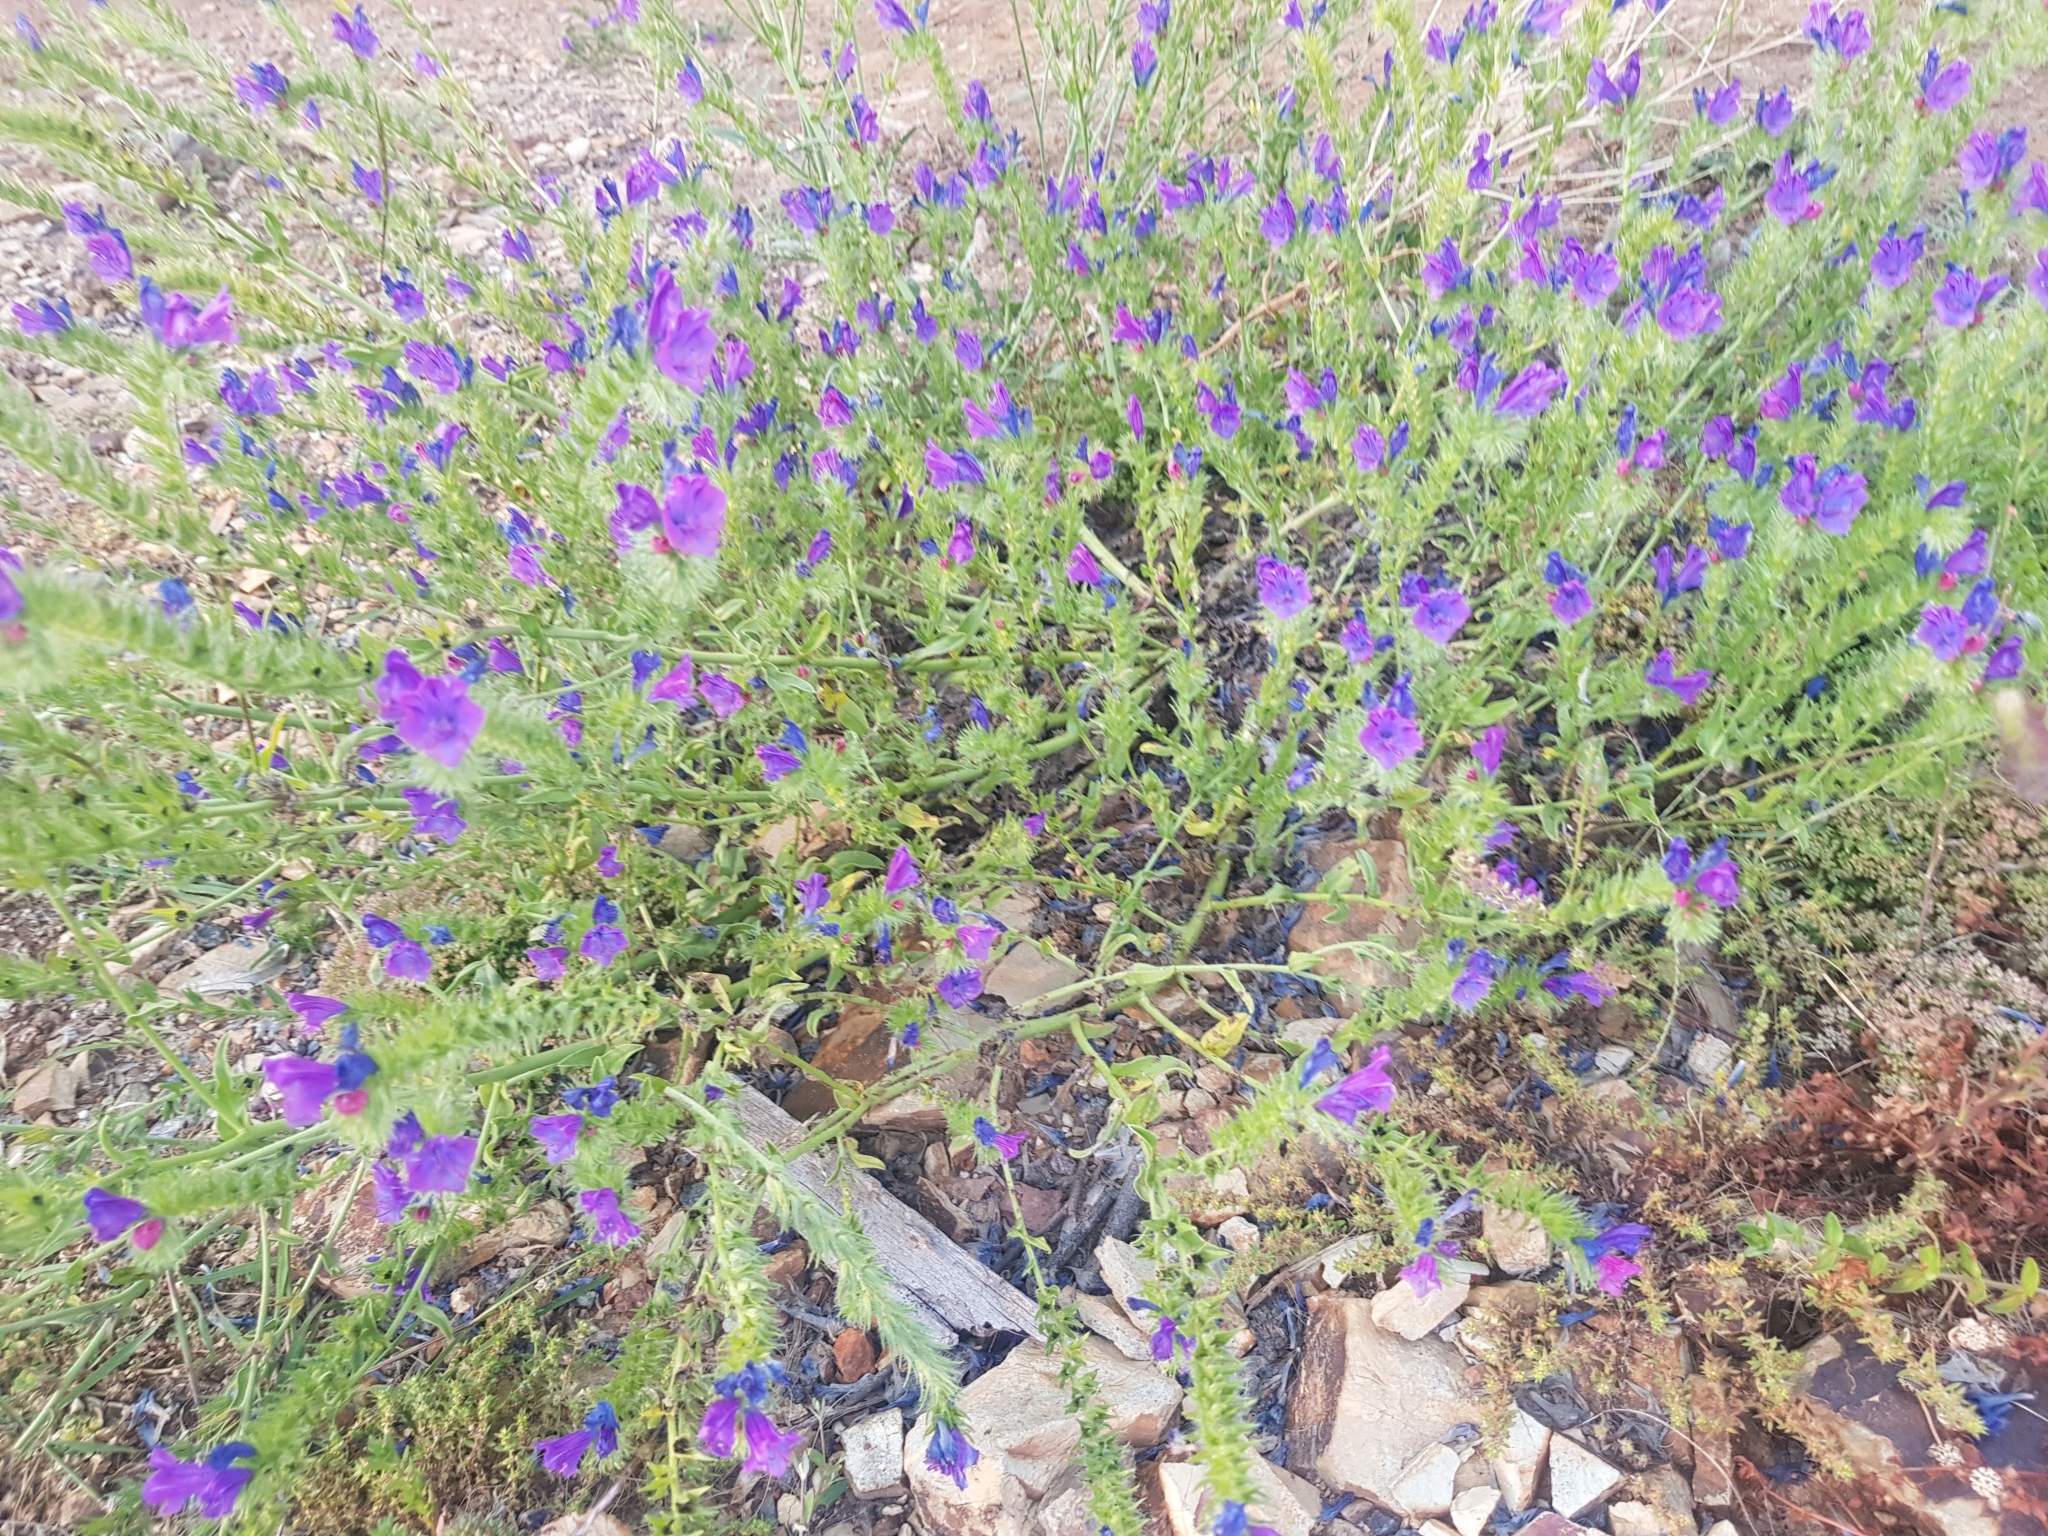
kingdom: Plantae
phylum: Tracheophyta
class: Magnoliopsida
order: Boraginales
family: Boraginaceae
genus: Echium
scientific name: Echium plantagineum
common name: Purple viper's-bugloss
